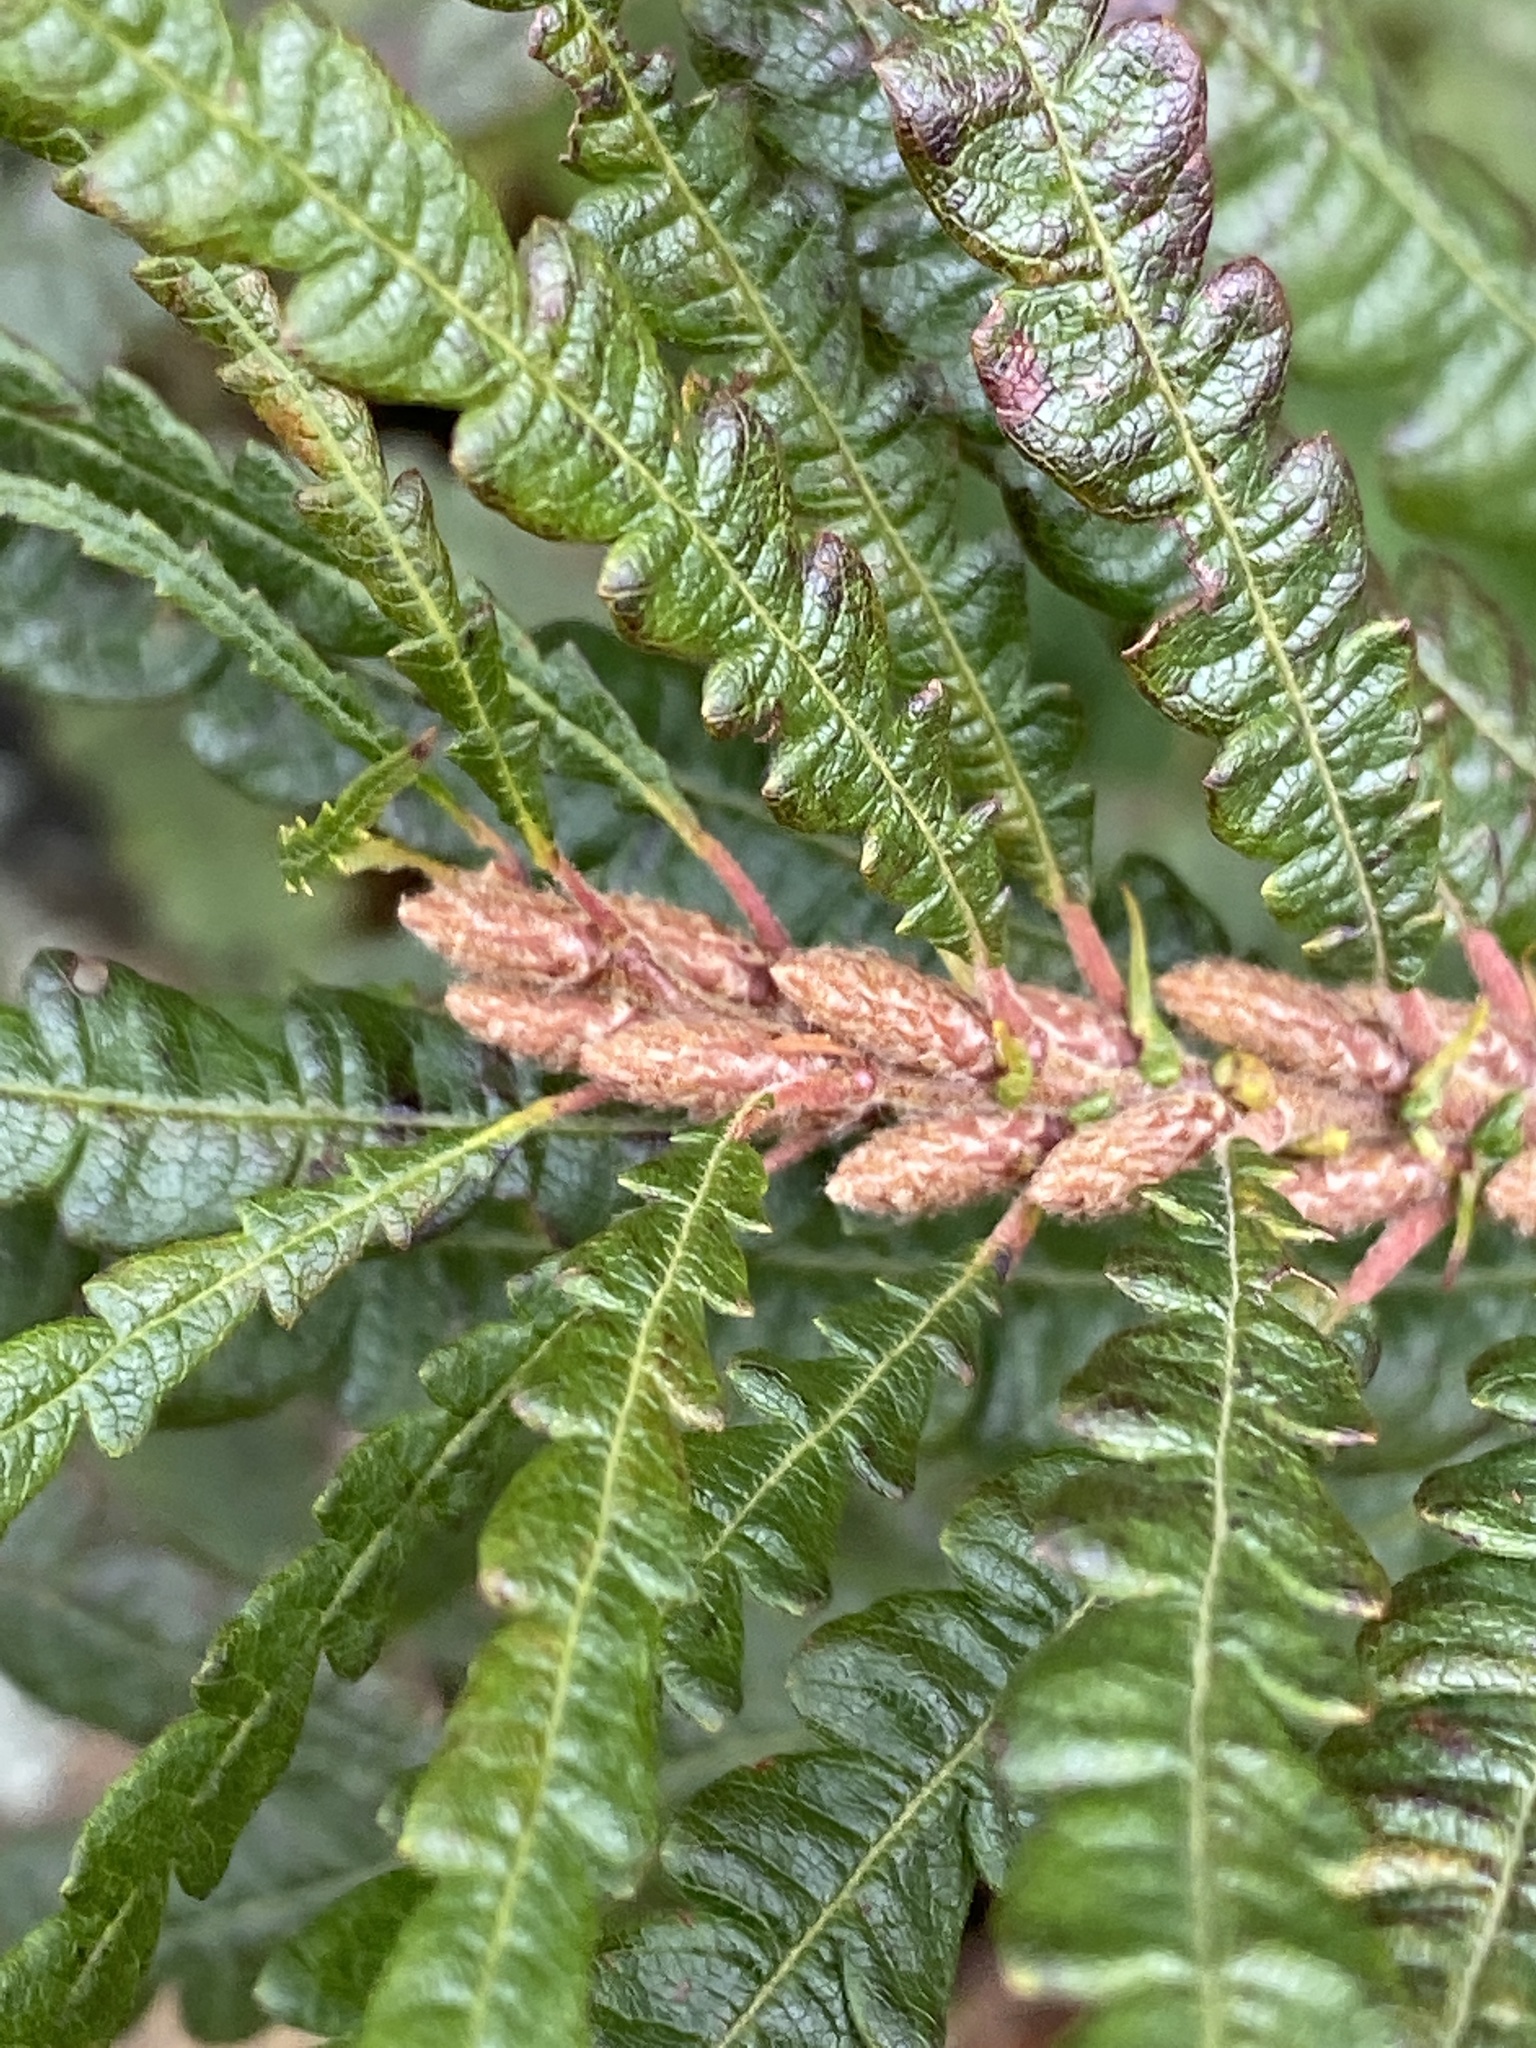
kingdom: Plantae
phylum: Tracheophyta
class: Magnoliopsida
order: Fagales
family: Myricaceae
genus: Comptonia
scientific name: Comptonia peregrina
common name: Sweet-fern
